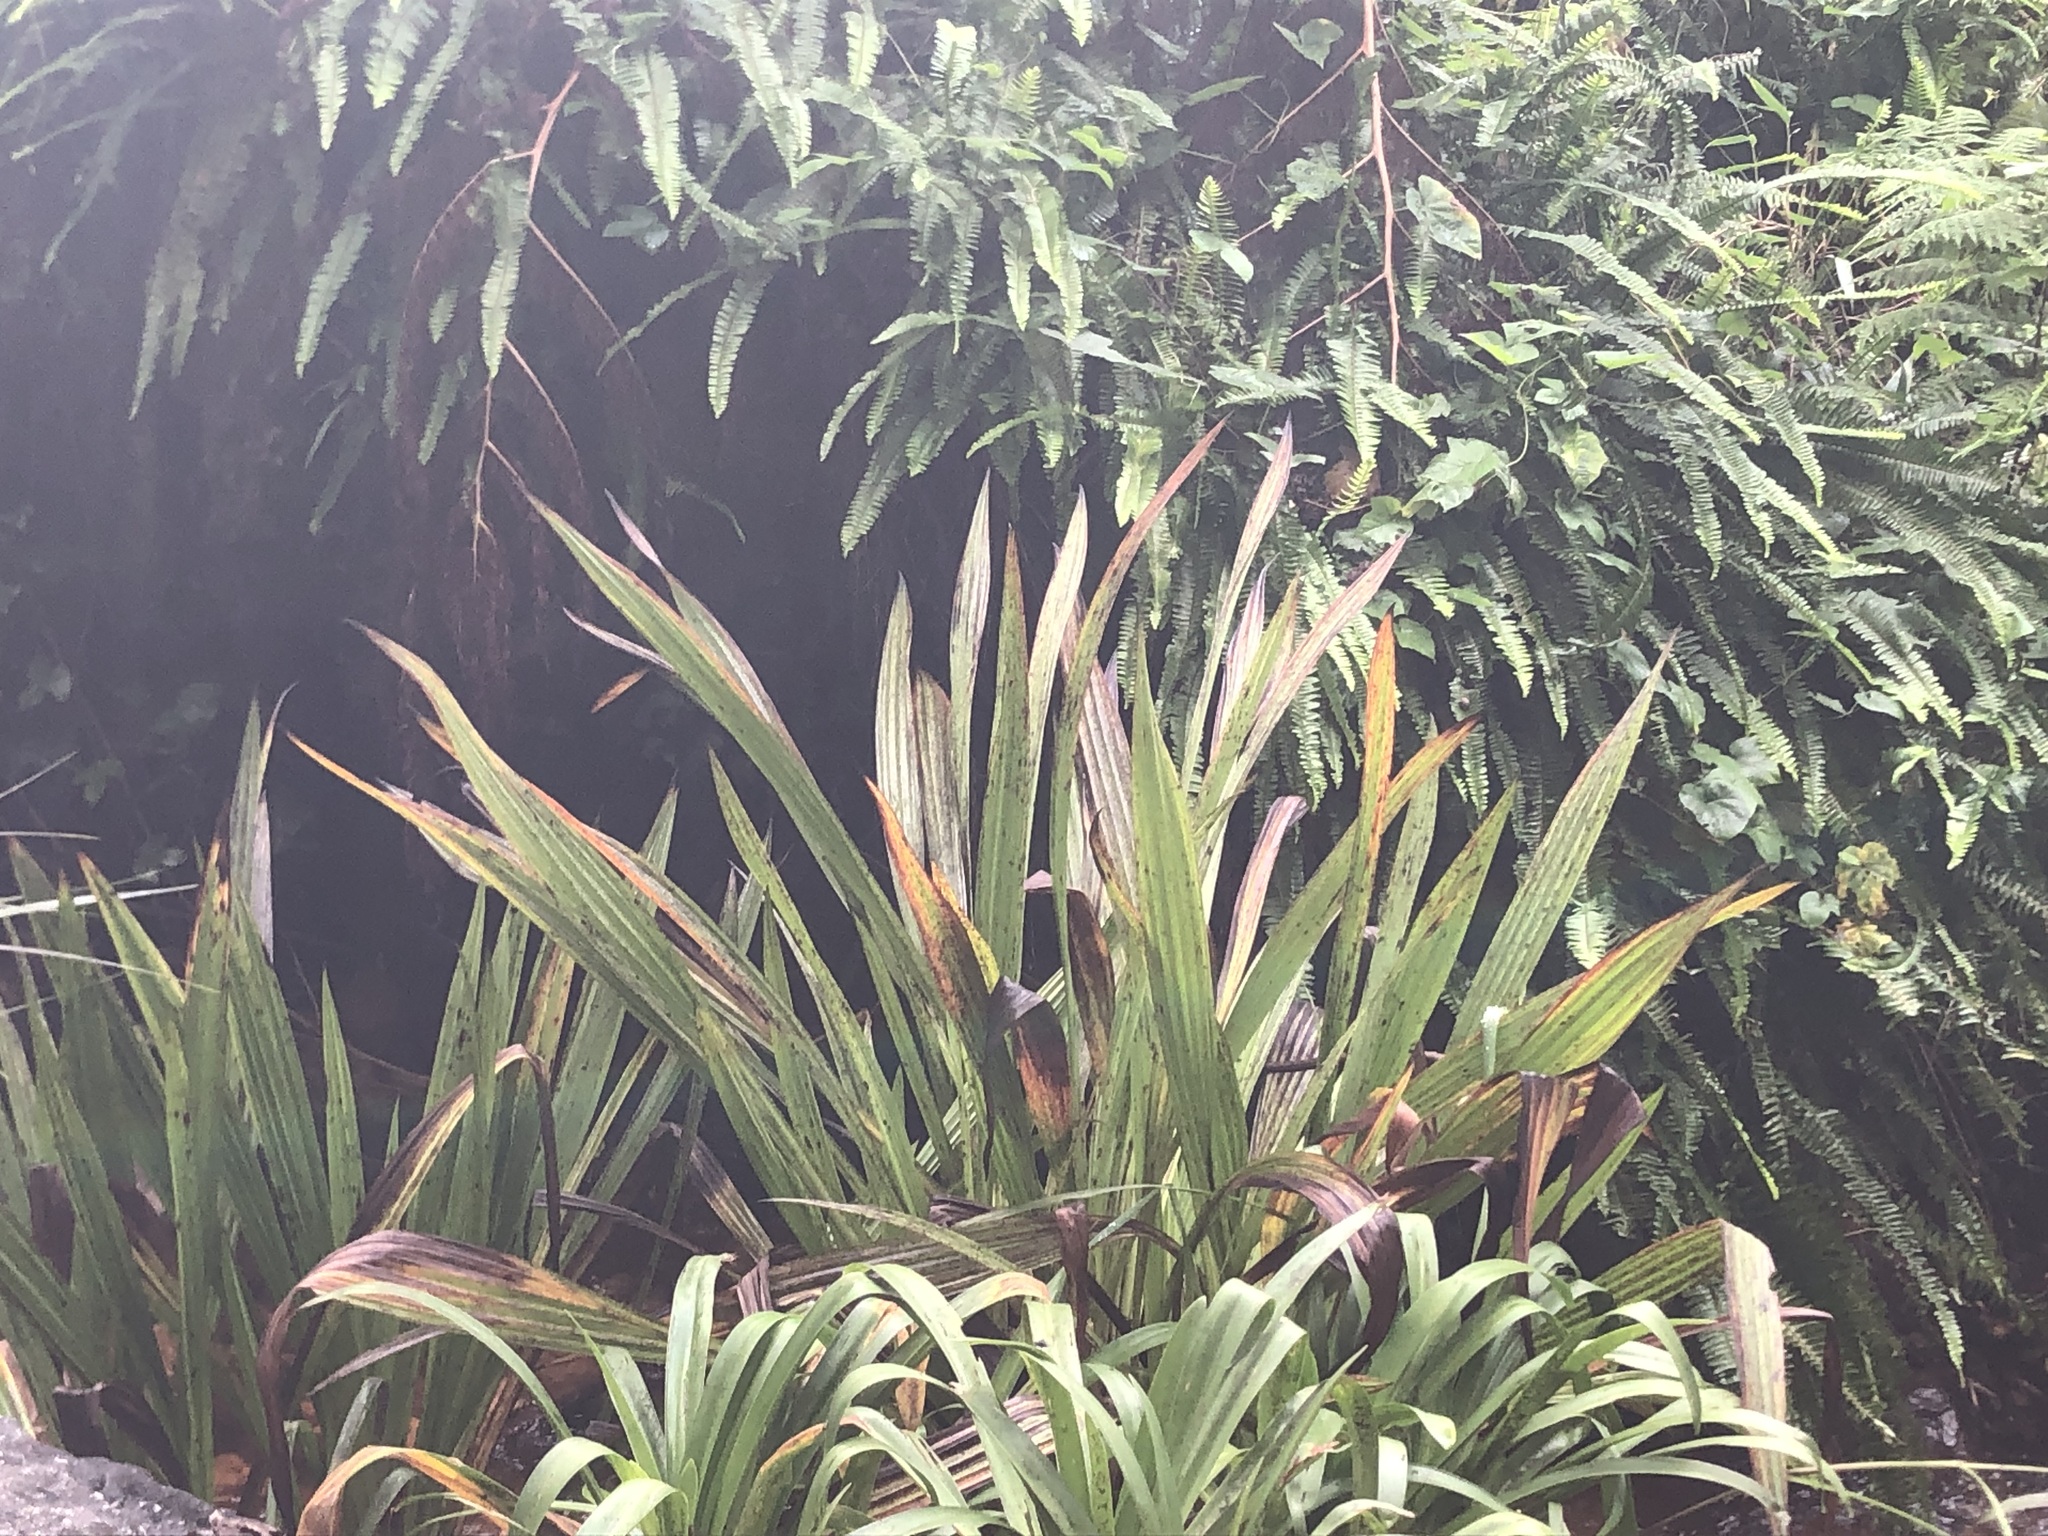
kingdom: Plantae
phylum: Tracheophyta
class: Liliopsida
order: Commelinales
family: Haemodoraceae
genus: Wachendorfia
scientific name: Wachendorfia thyrsiflora
